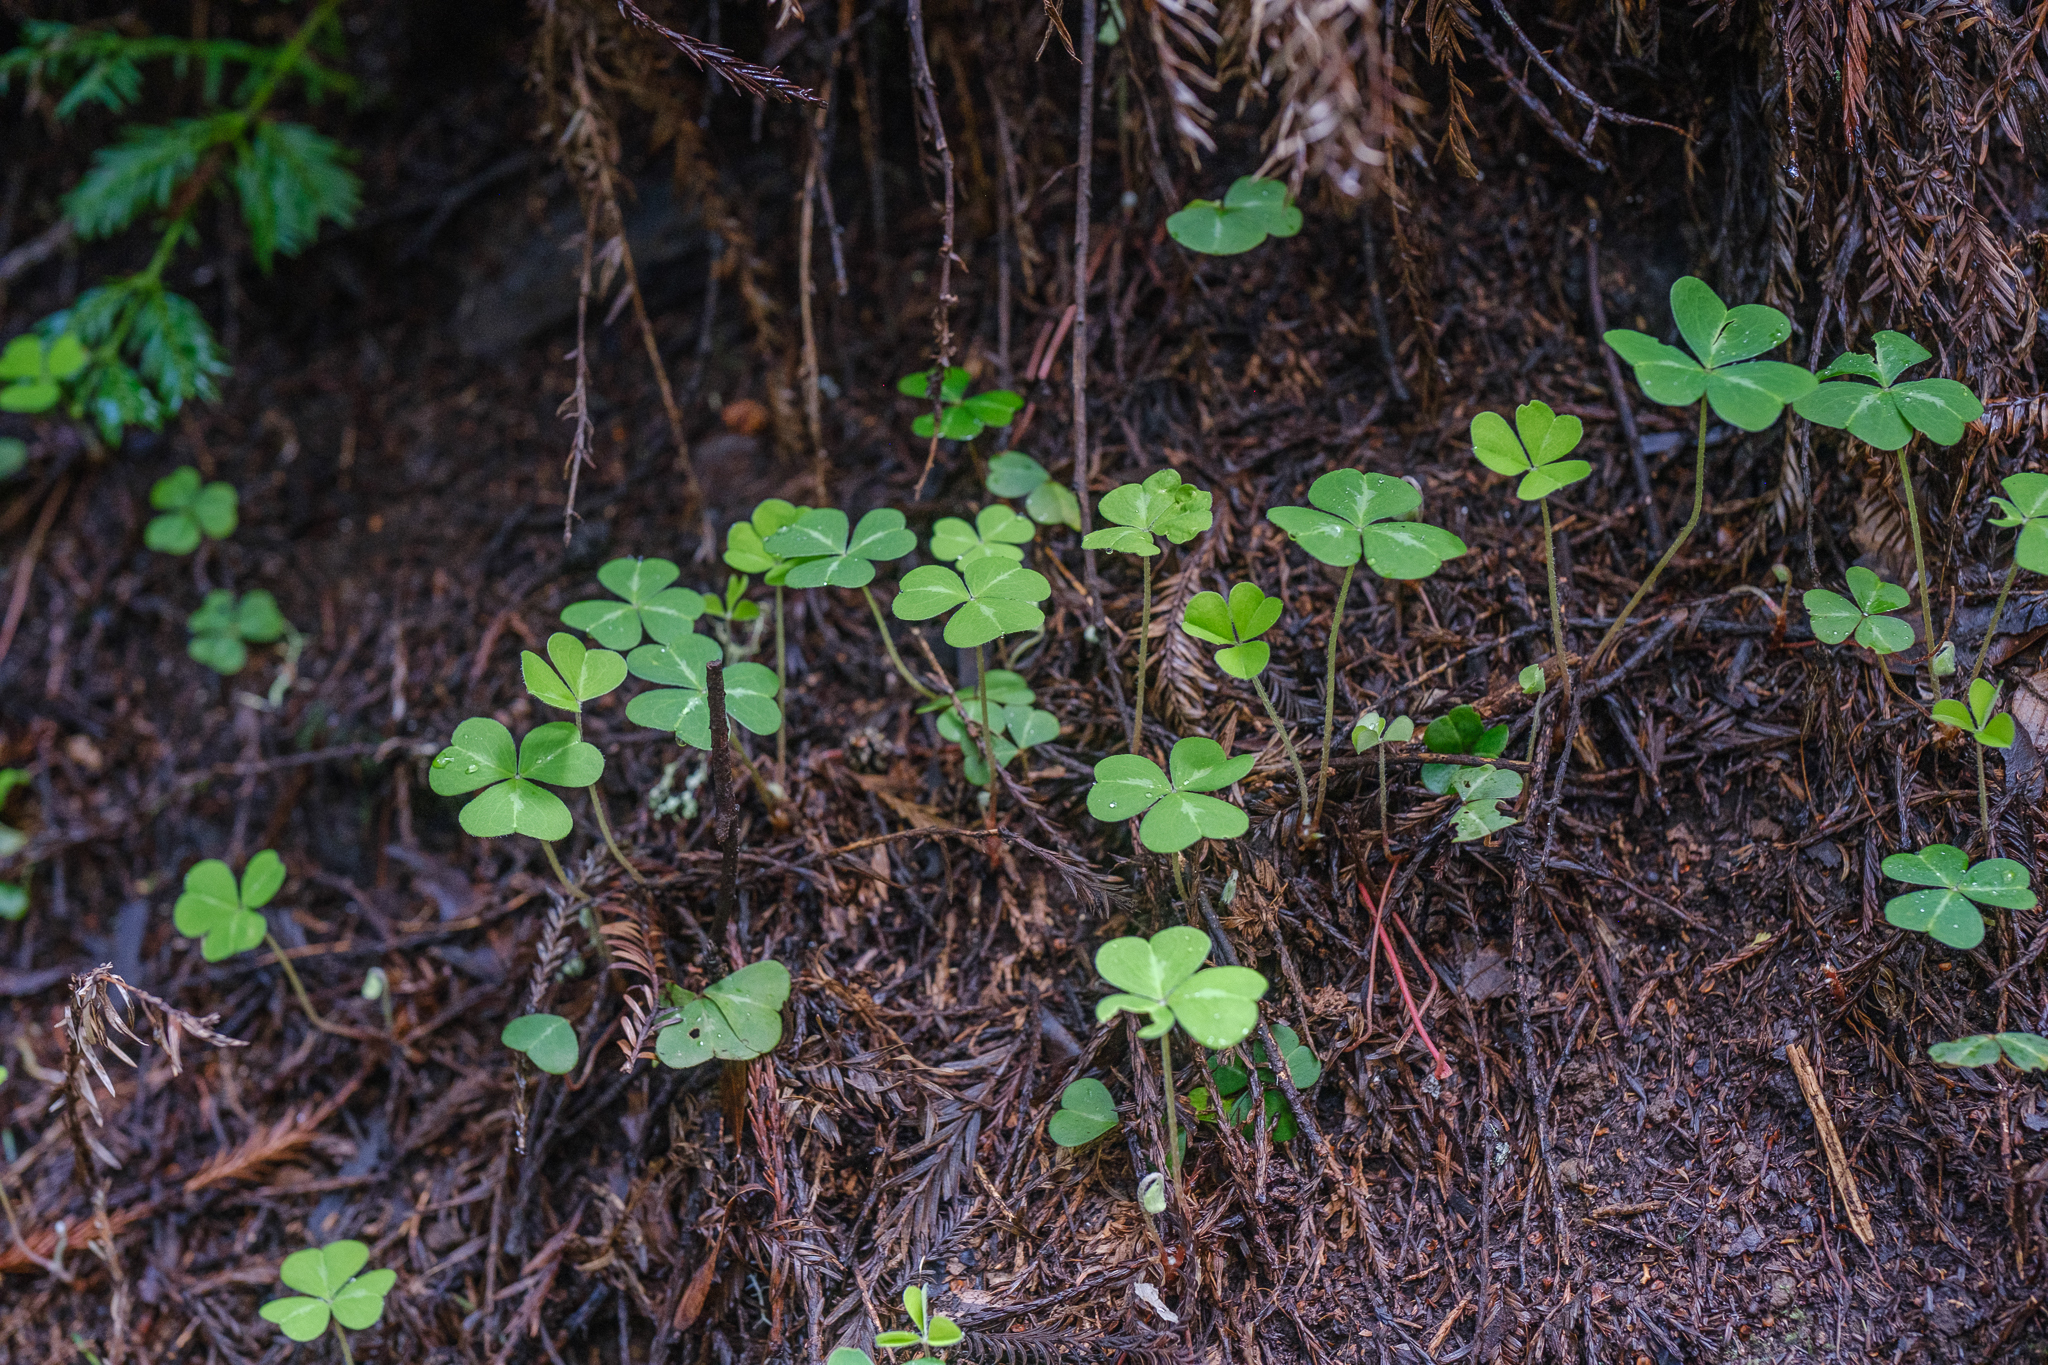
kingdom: Plantae
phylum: Tracheophyta
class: Magnoliopsida
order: Oxalidales
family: Oxalidaceae
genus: Oxalis
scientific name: Oxalis oregana
